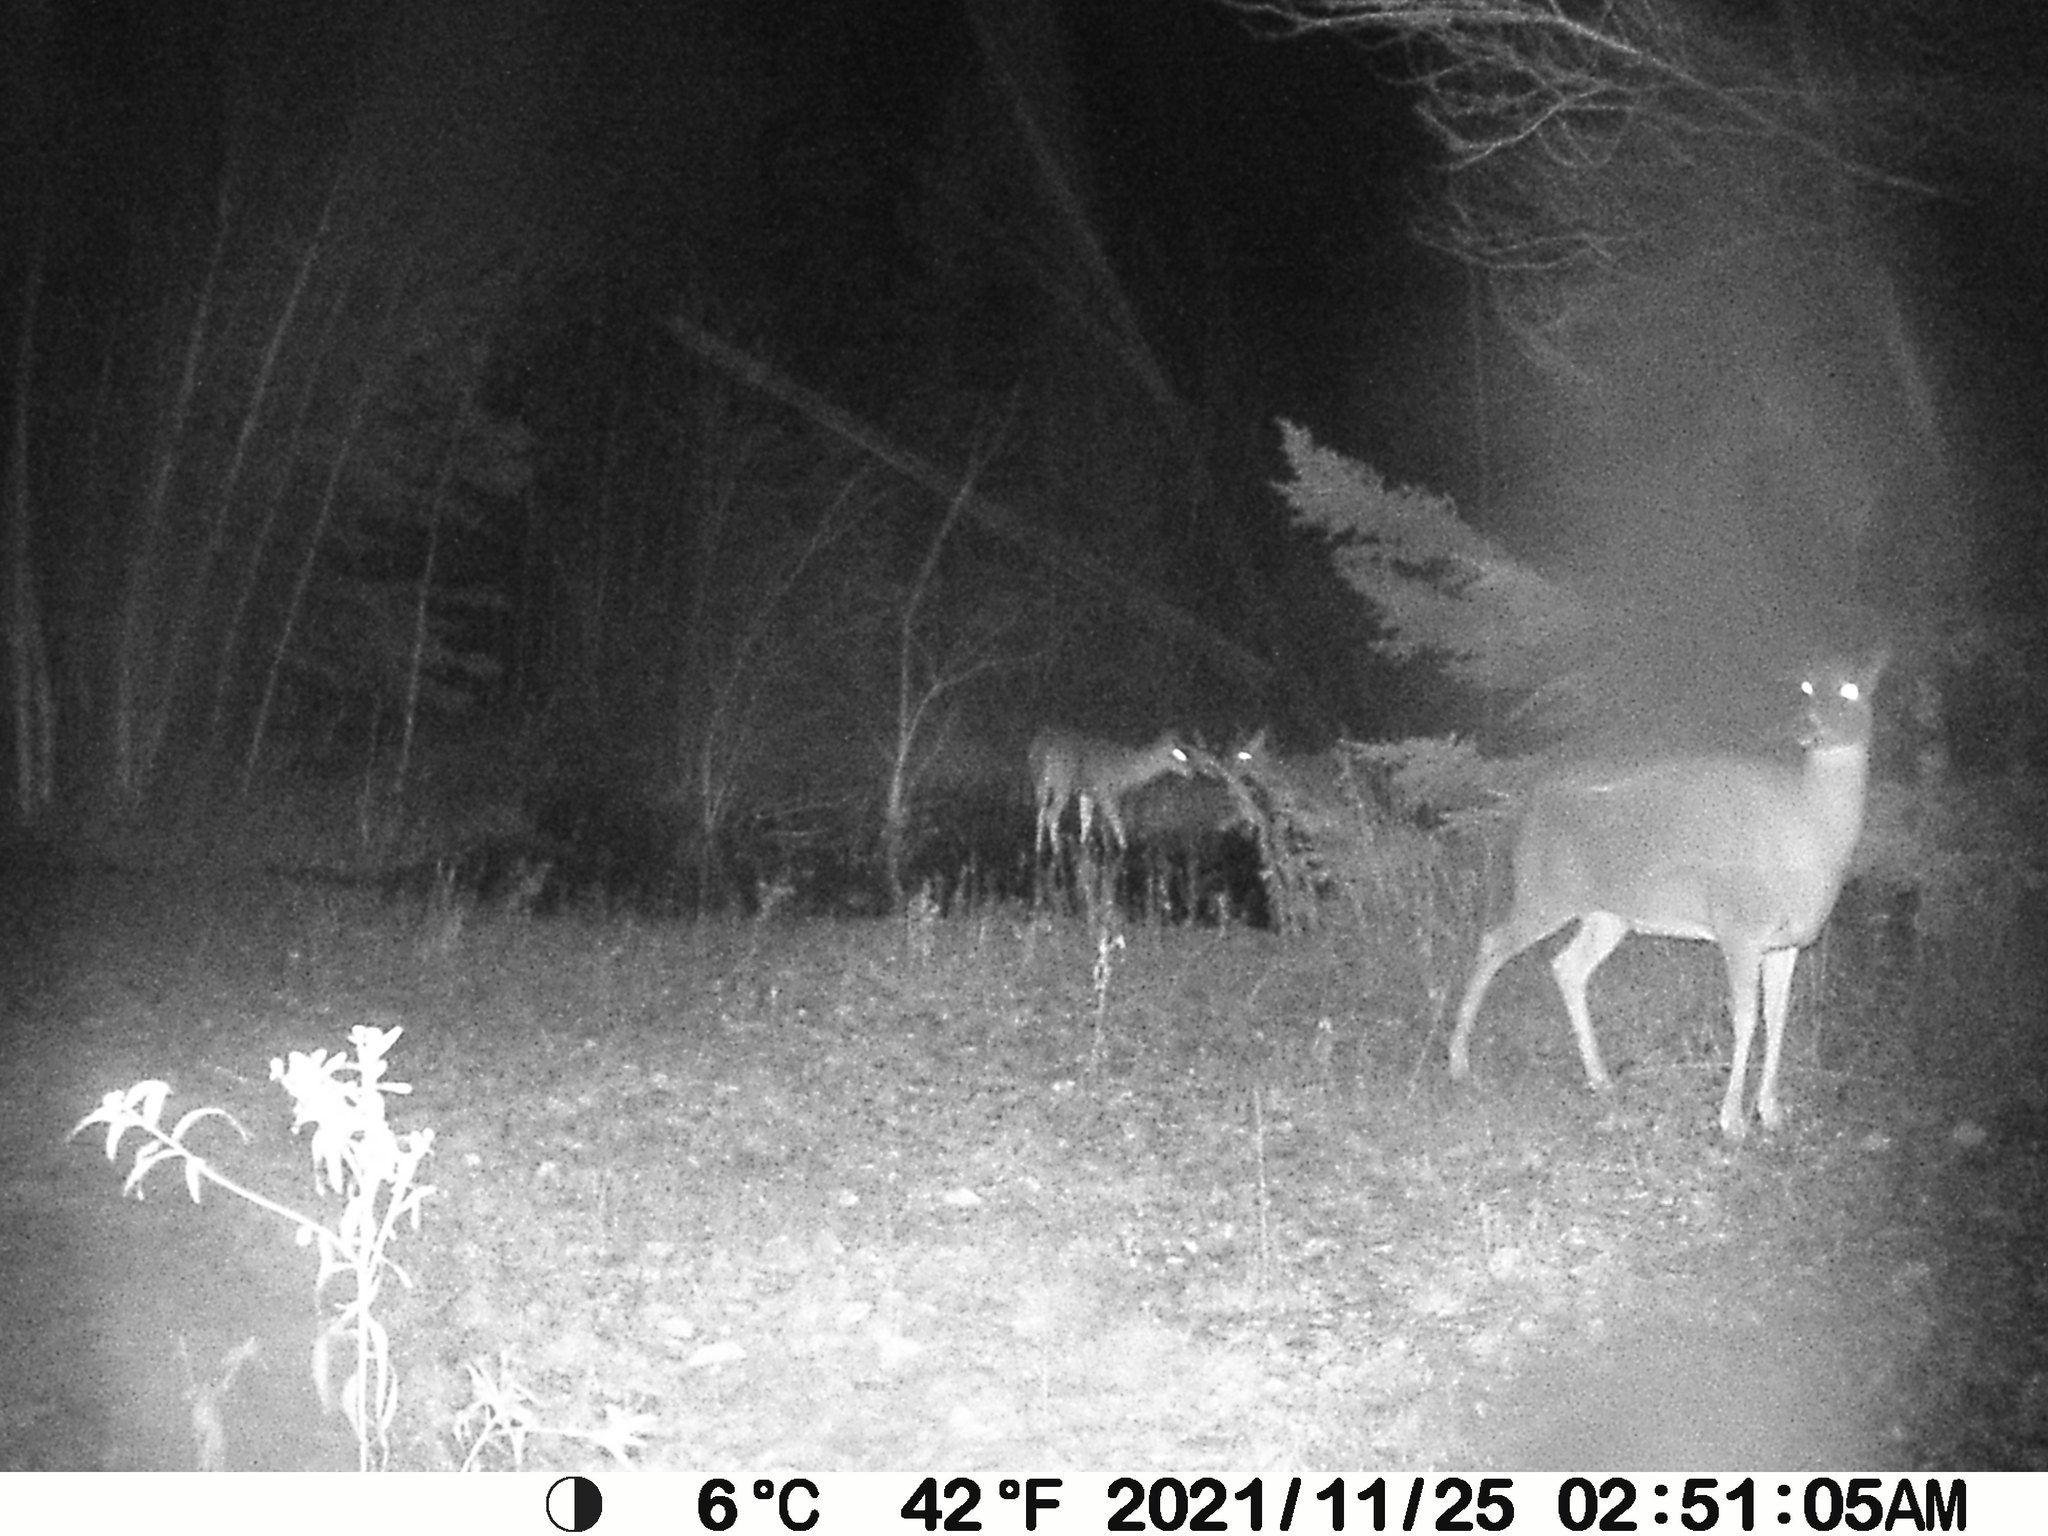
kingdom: Animalia
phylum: Chordata
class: Mammalia
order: Artiodactyla
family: Cervidae
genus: Odocoileus
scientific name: Odocoileus virginianus
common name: White-tailed deer
